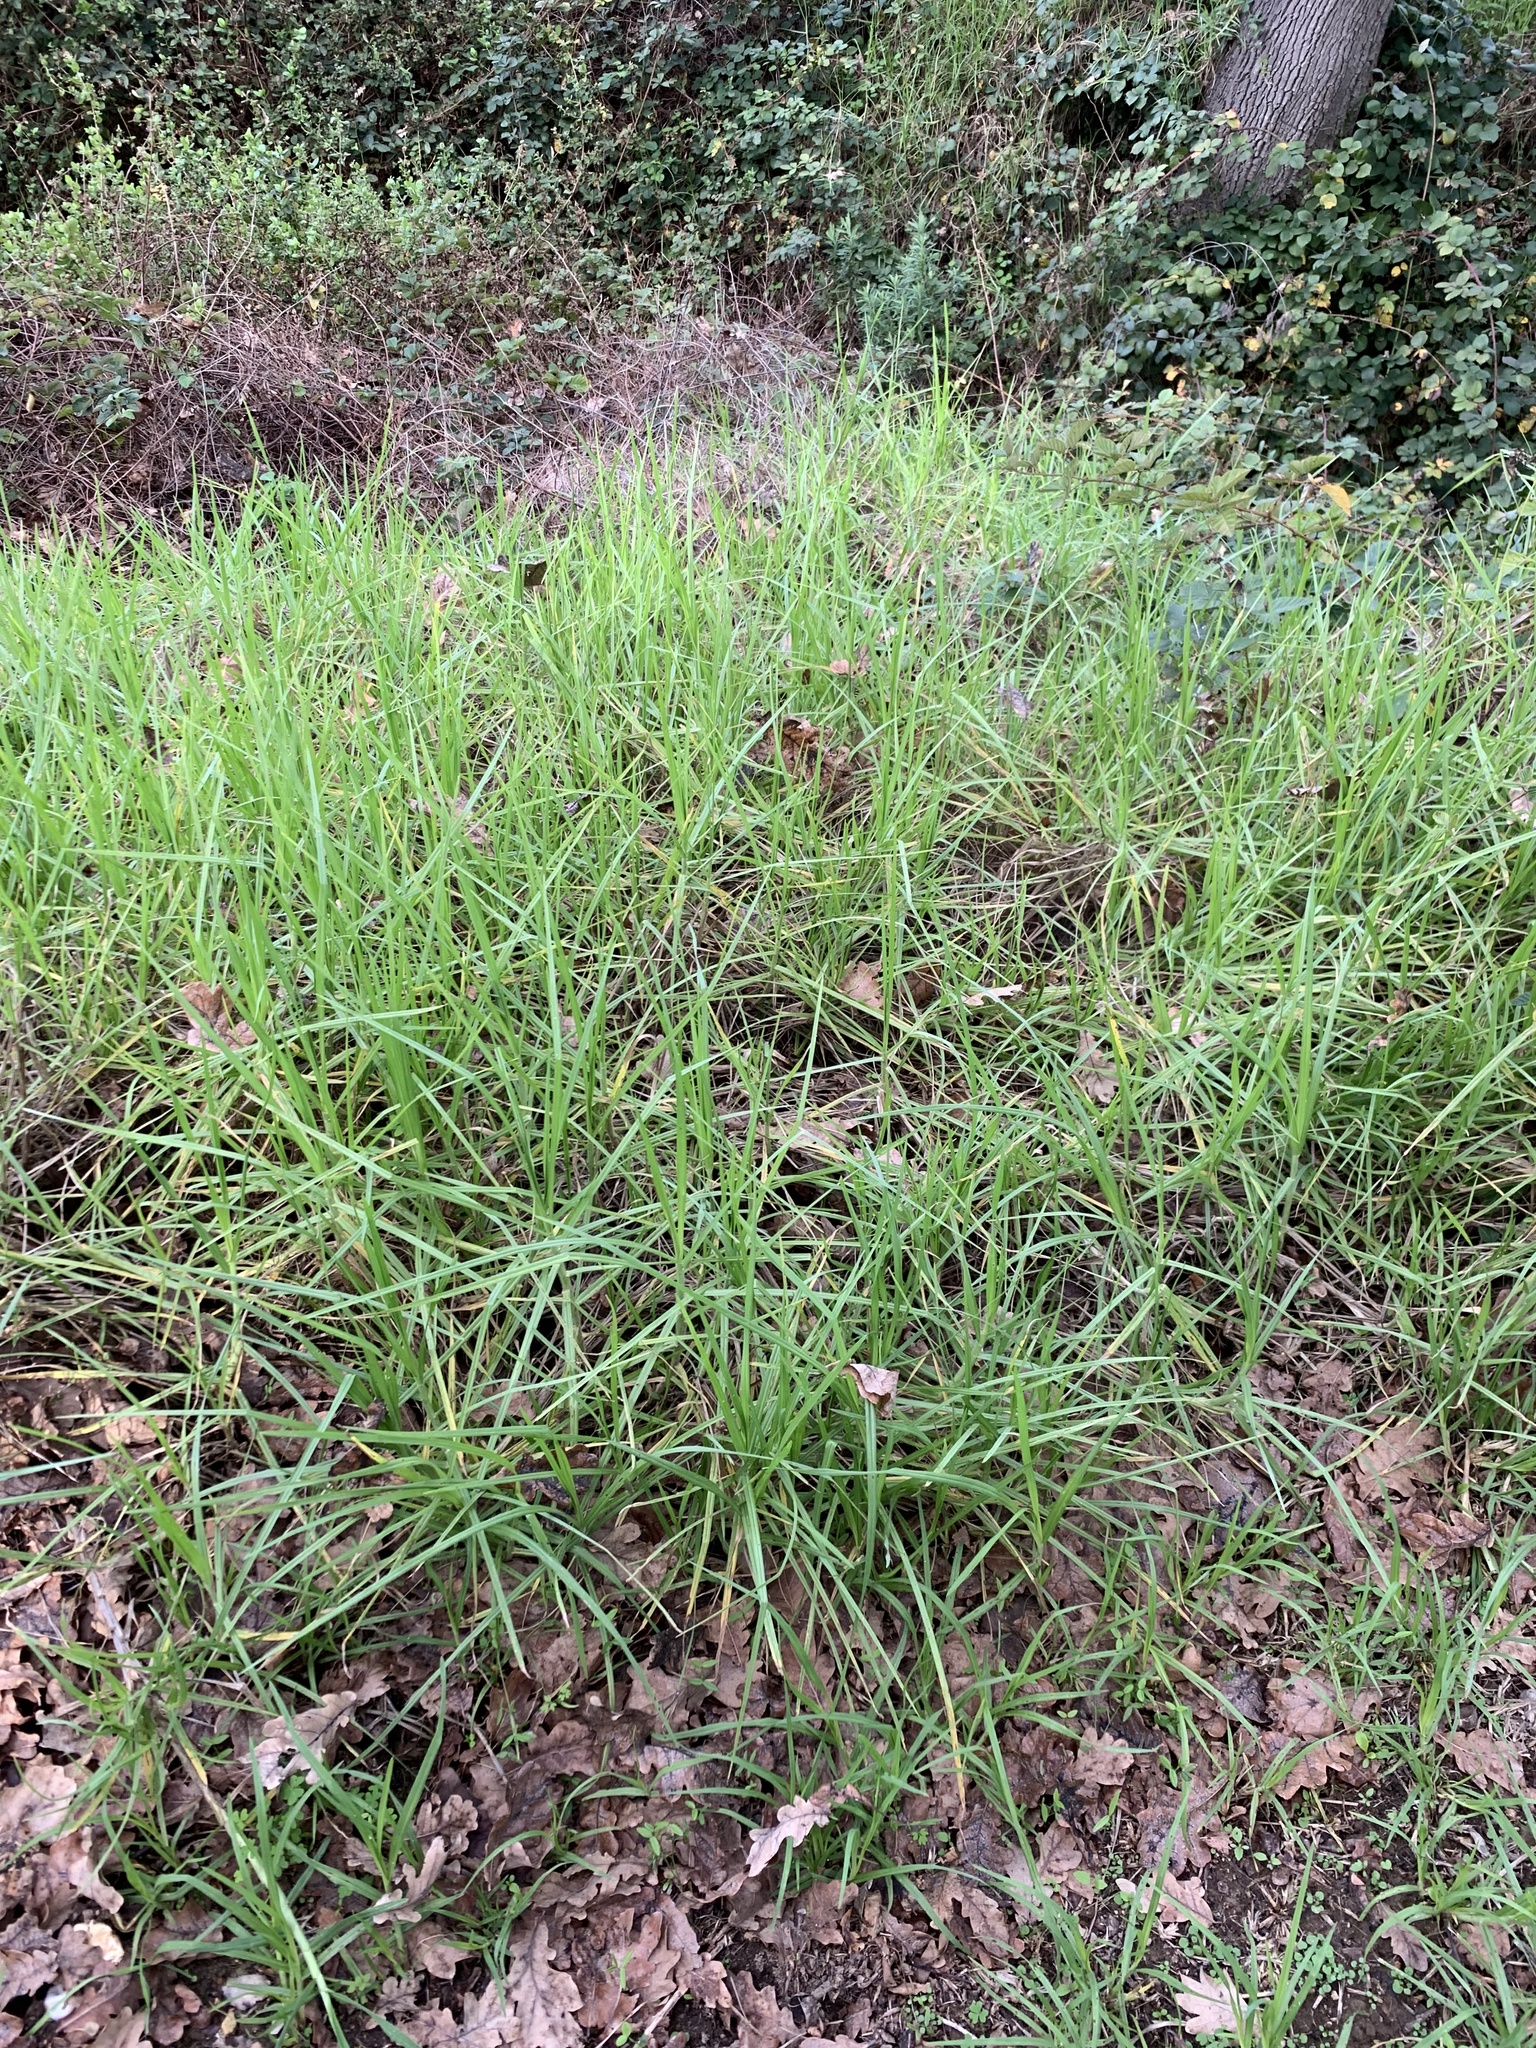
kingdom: Plantae
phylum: Tracheophyta
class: Liliopsida
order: Poales
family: Poaceae
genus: Cenchrus
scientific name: Cenchrus clandestinus
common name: Kikuyugrass
